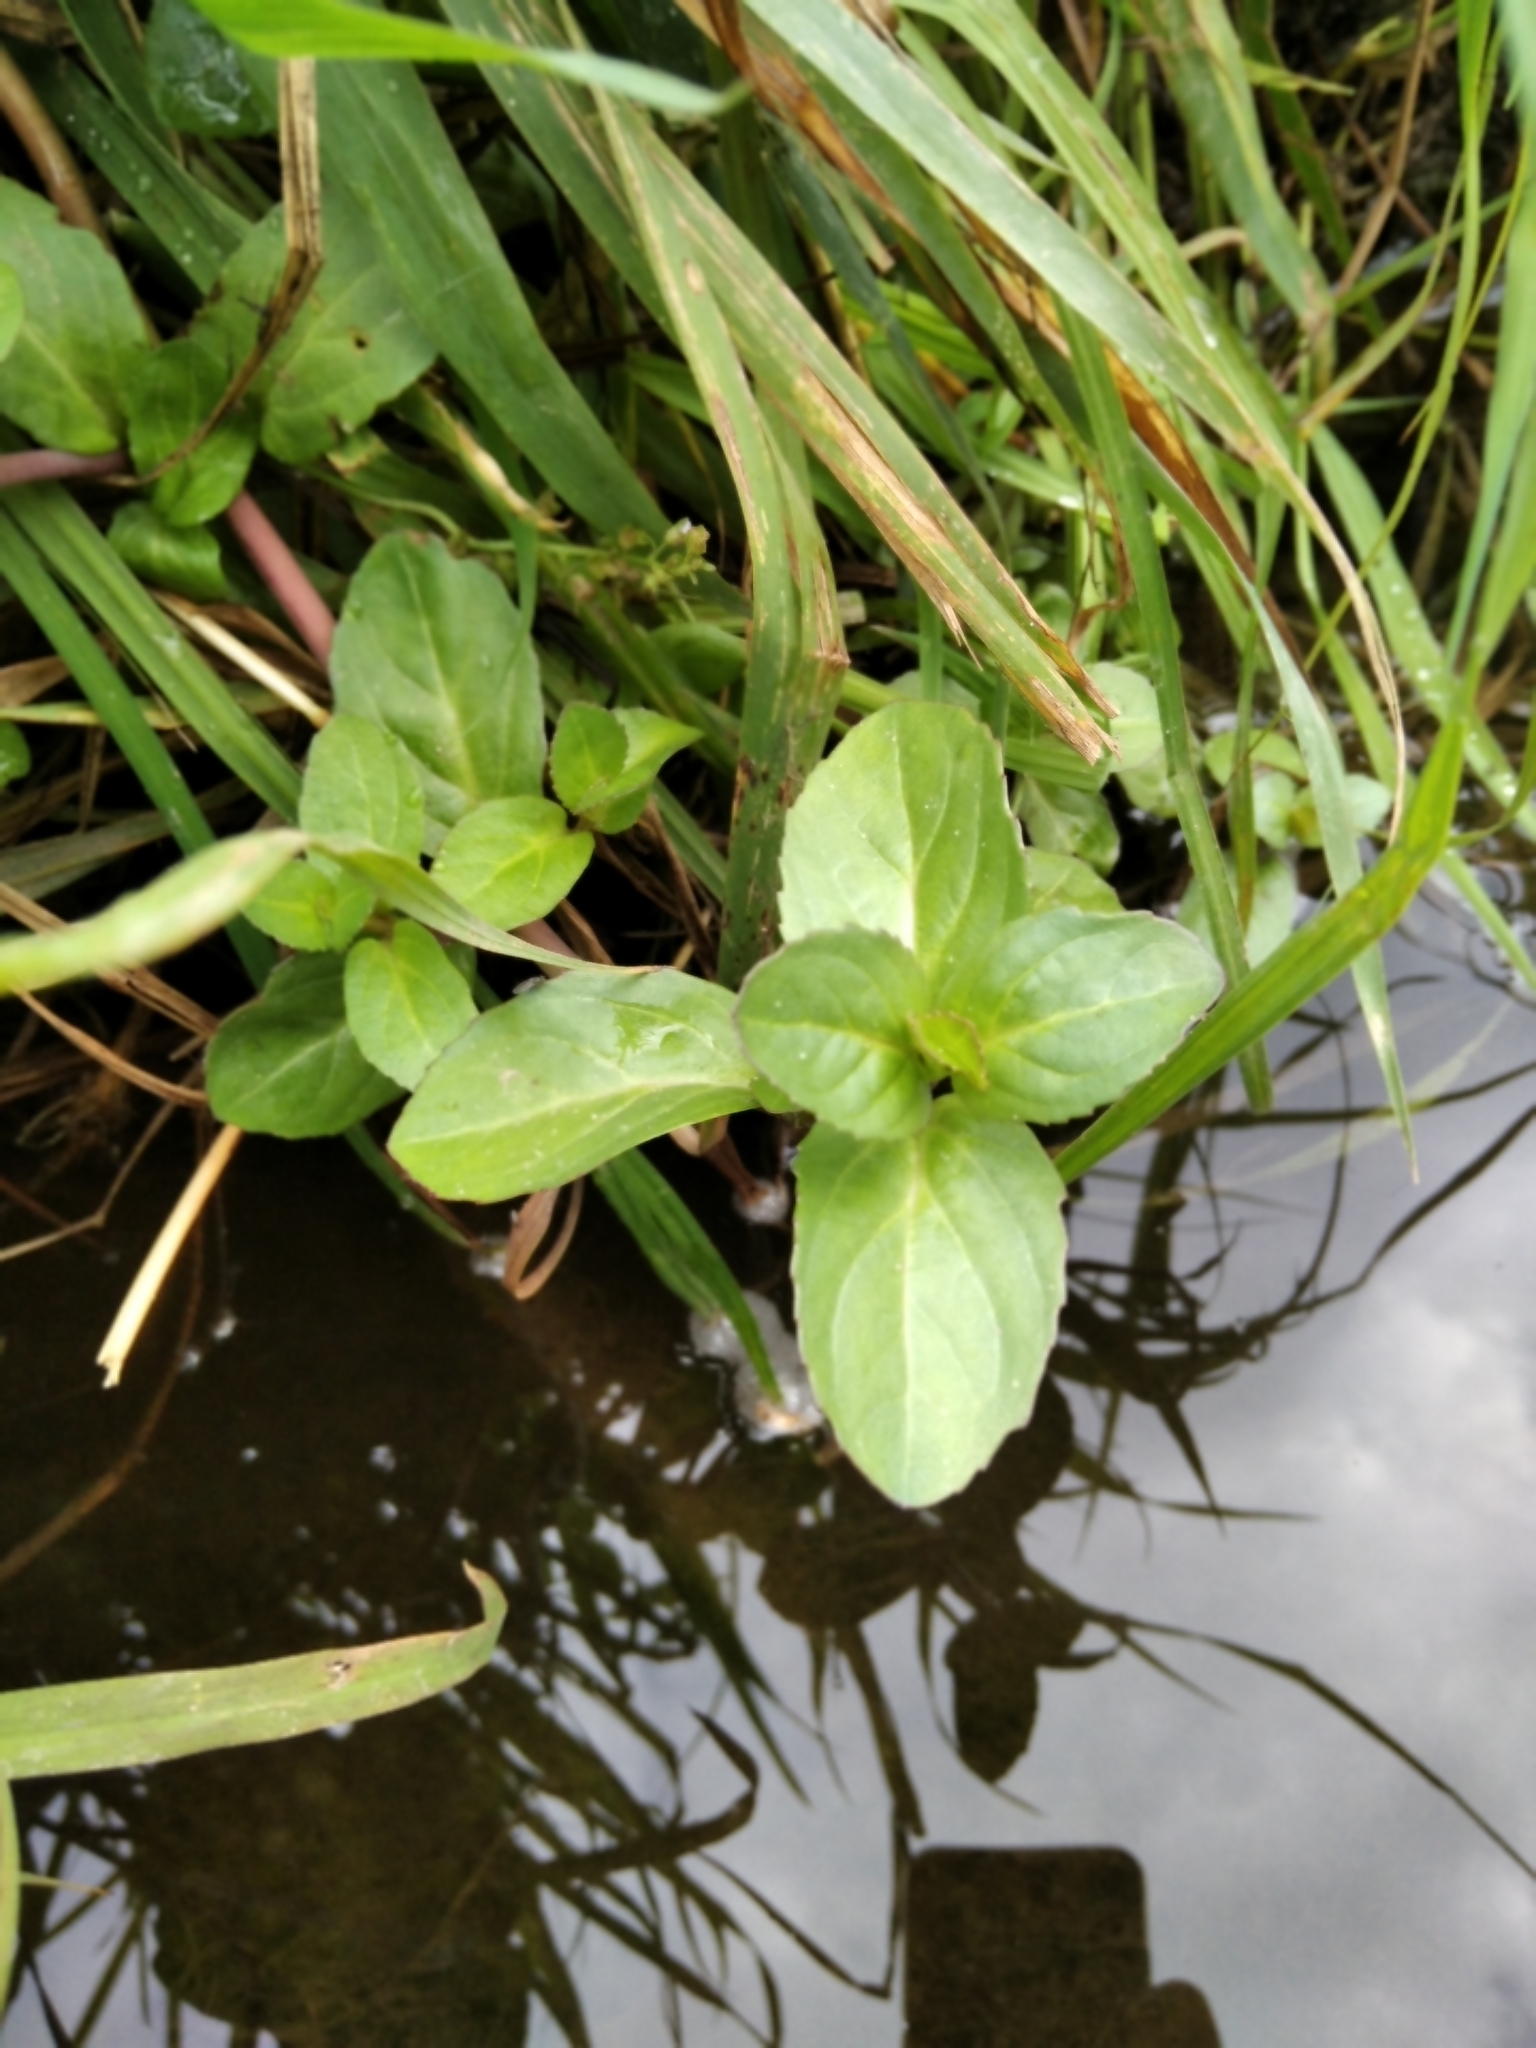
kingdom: Plantae
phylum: Tracheophyta
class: Magnoliopsida
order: Lamiales
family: Plantaginaceae
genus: Veronica
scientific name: Veronica beccabunga
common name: Brooklime
